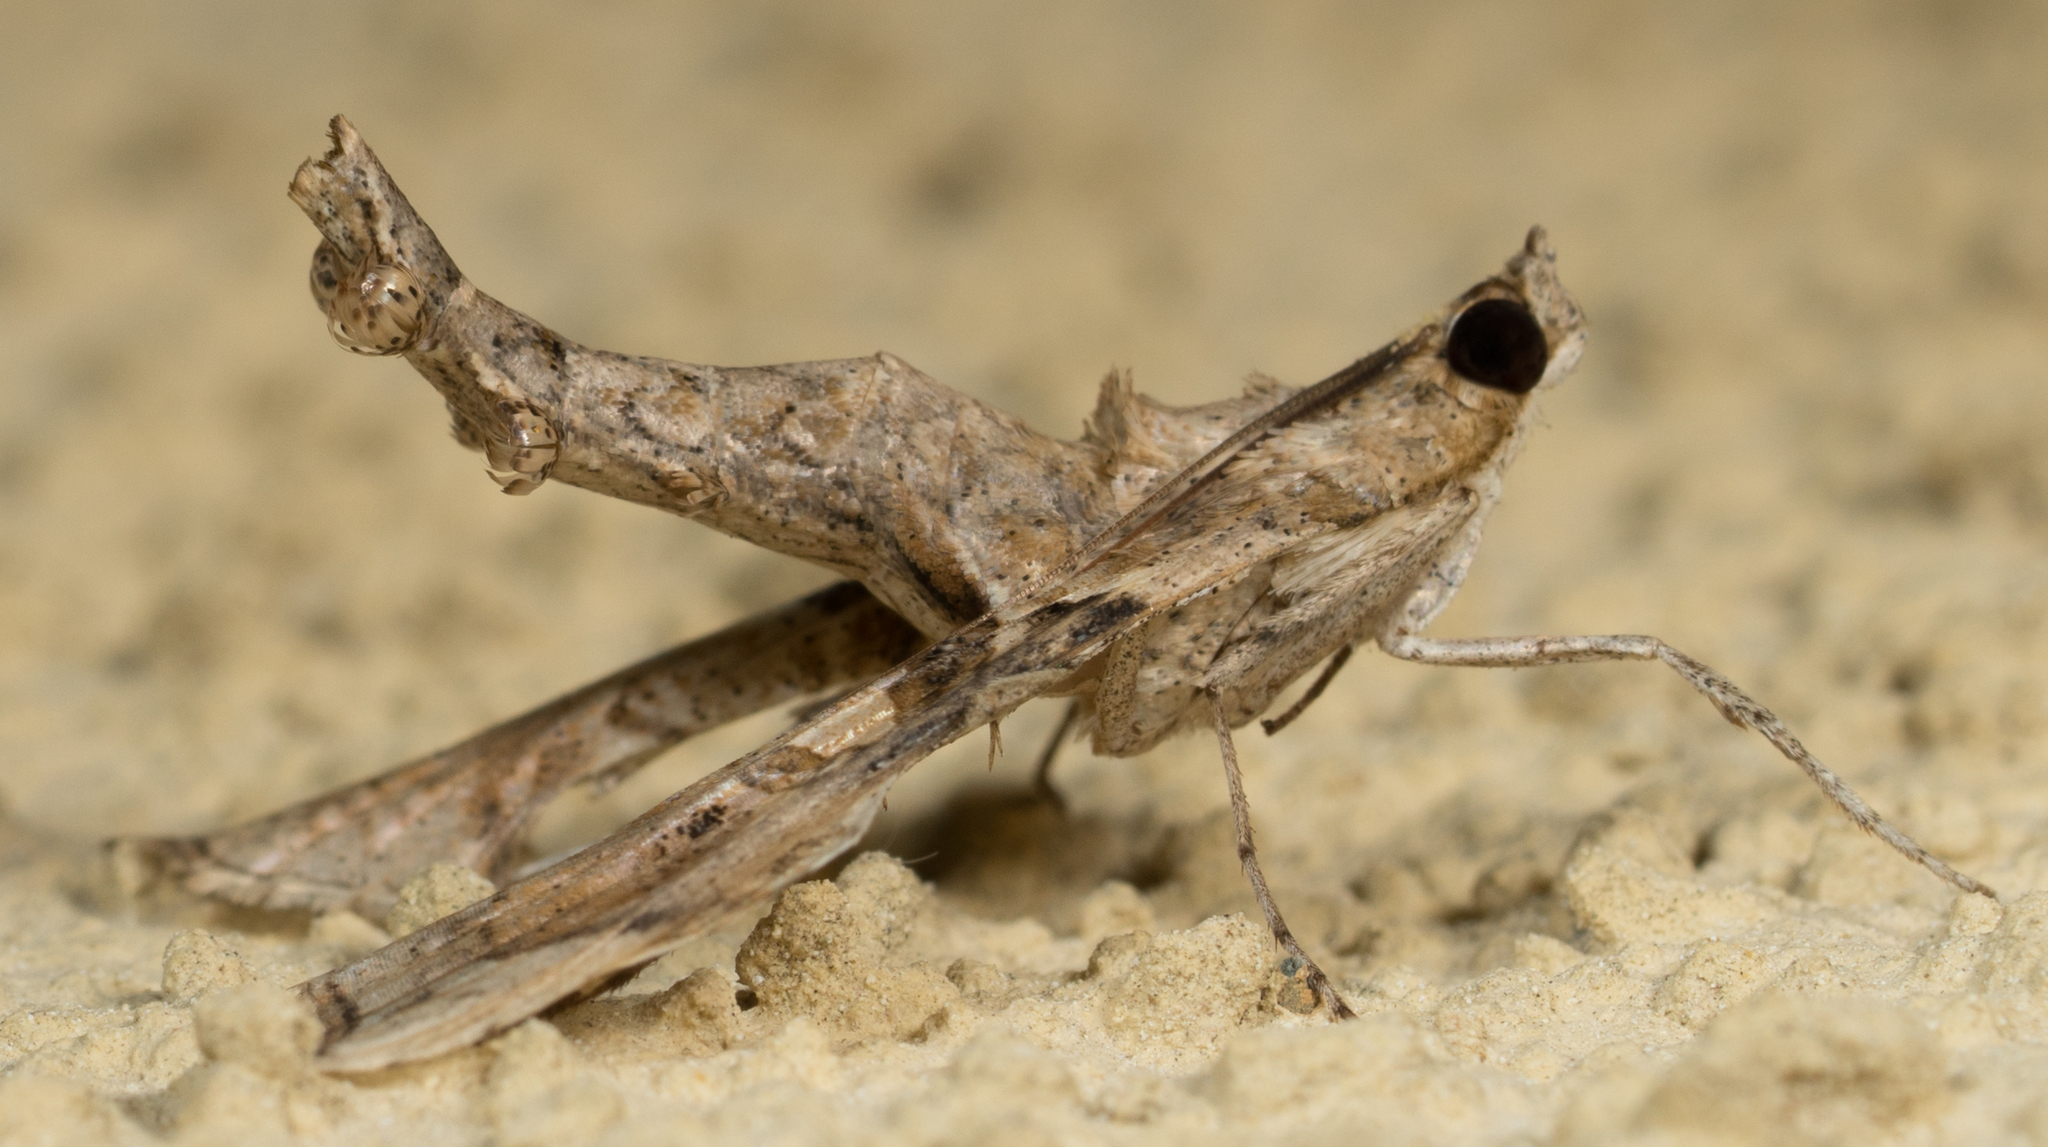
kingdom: Animalia
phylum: Arthropoda
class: Insecta
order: Lepidoptera
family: Crambidae
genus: Terastia
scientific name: Terastia meticulosalis
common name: Moth
